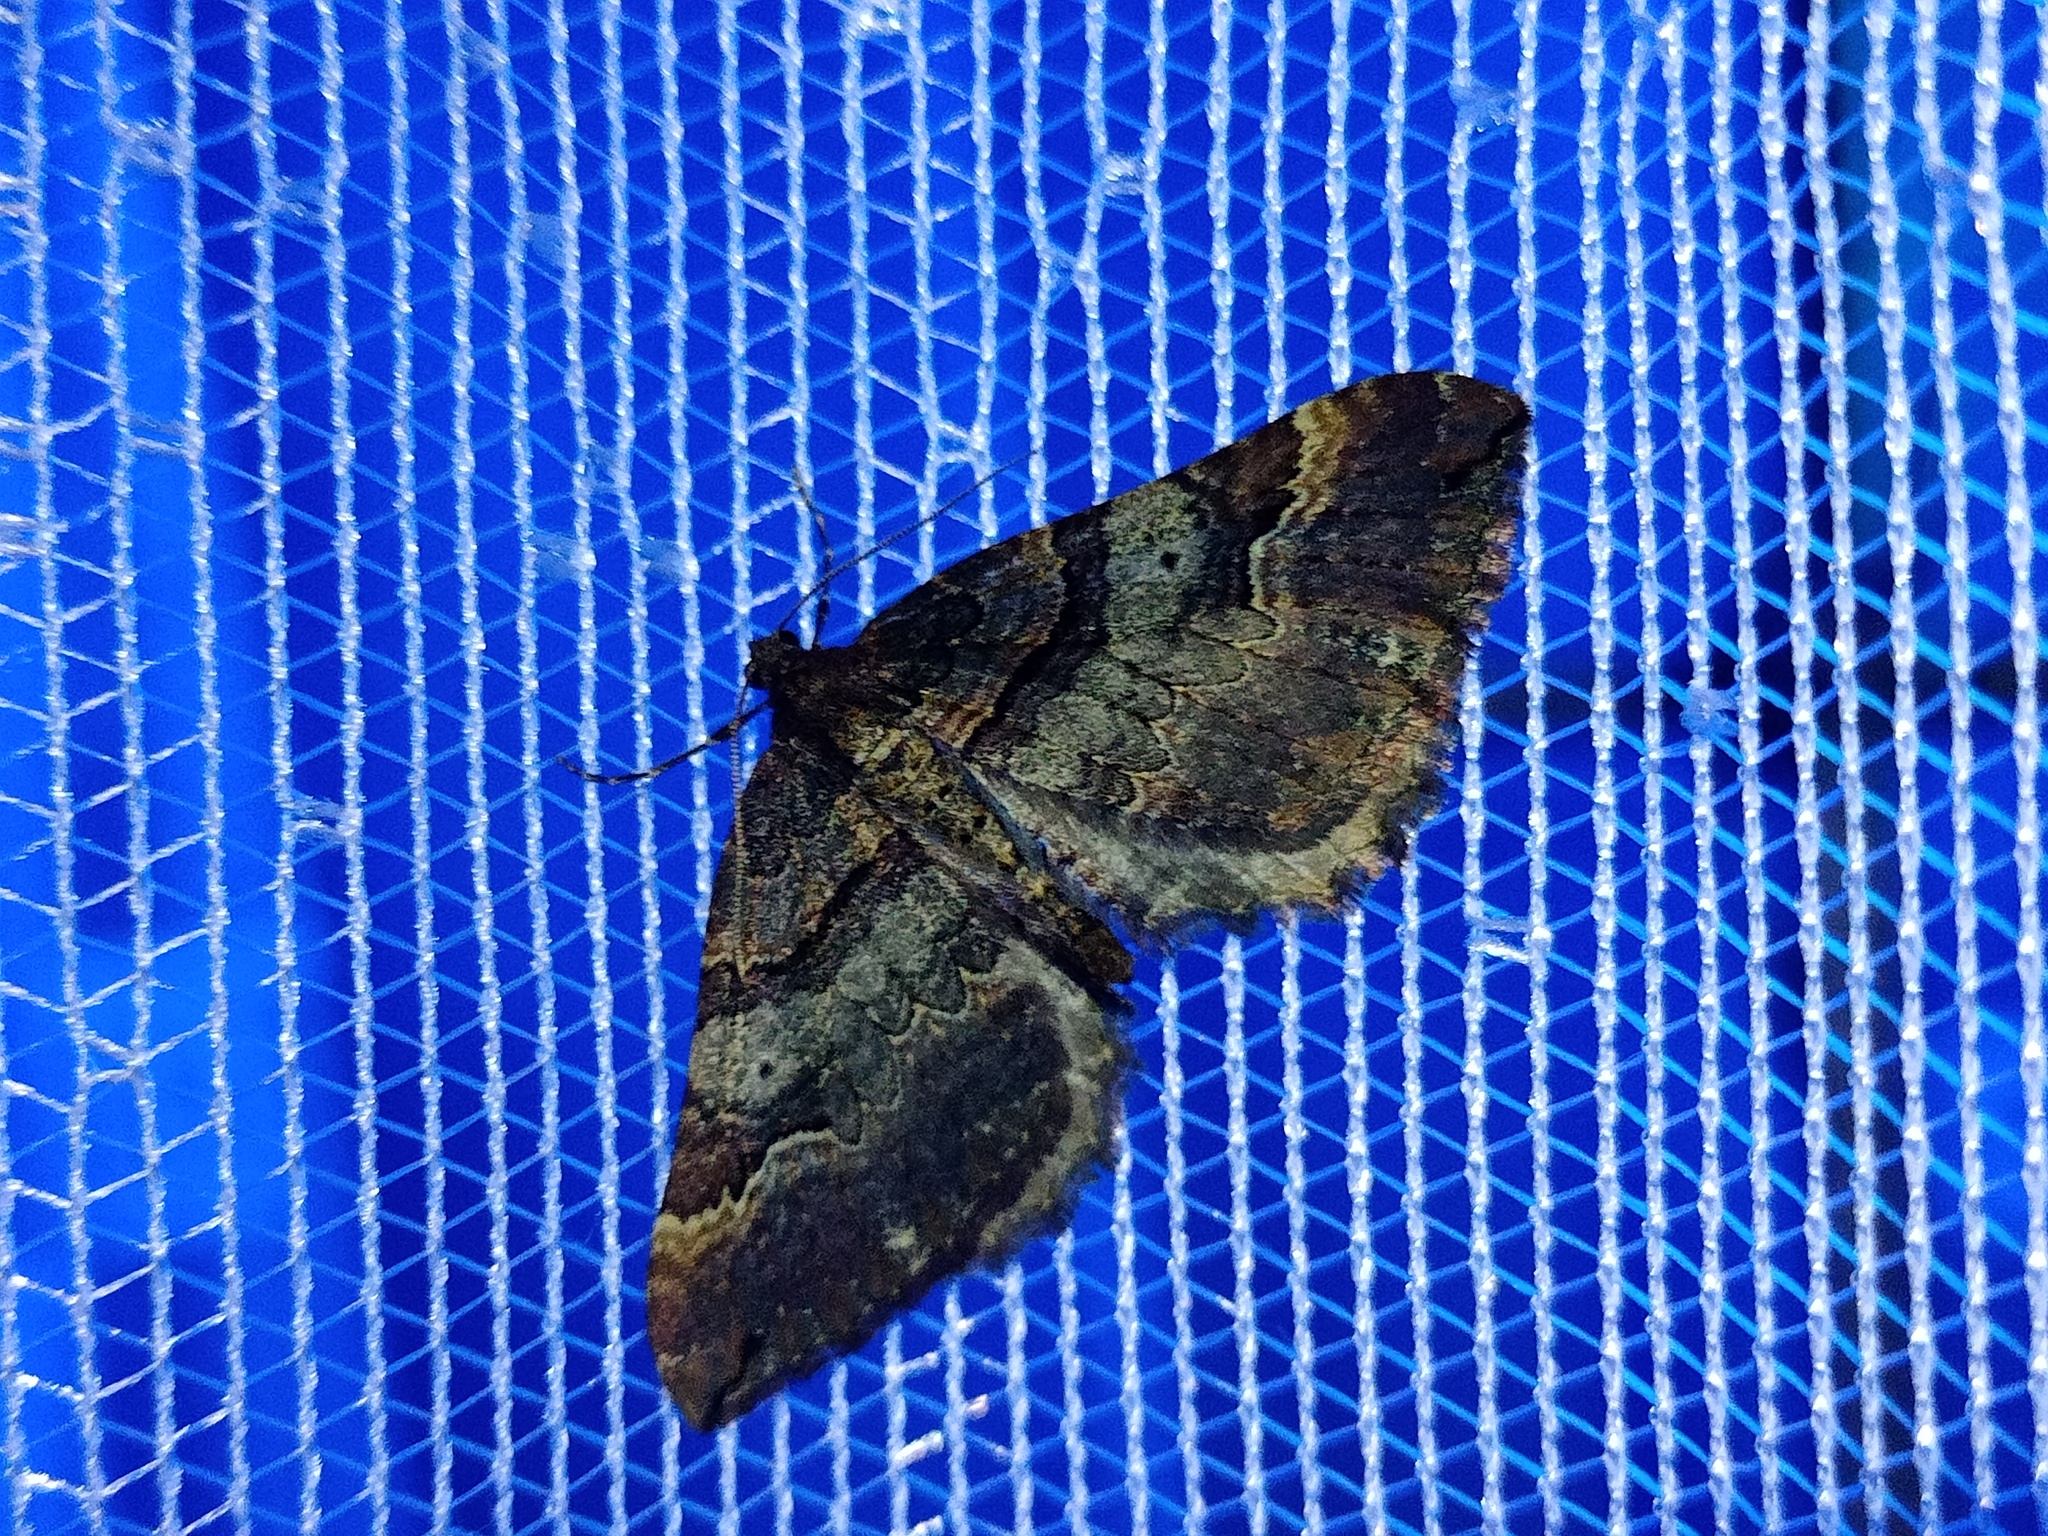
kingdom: Animalia
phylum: Arthropoda
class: Insecta
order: Lepidoptera
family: Geometridae
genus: Anticlea
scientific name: Anticlea badiata
